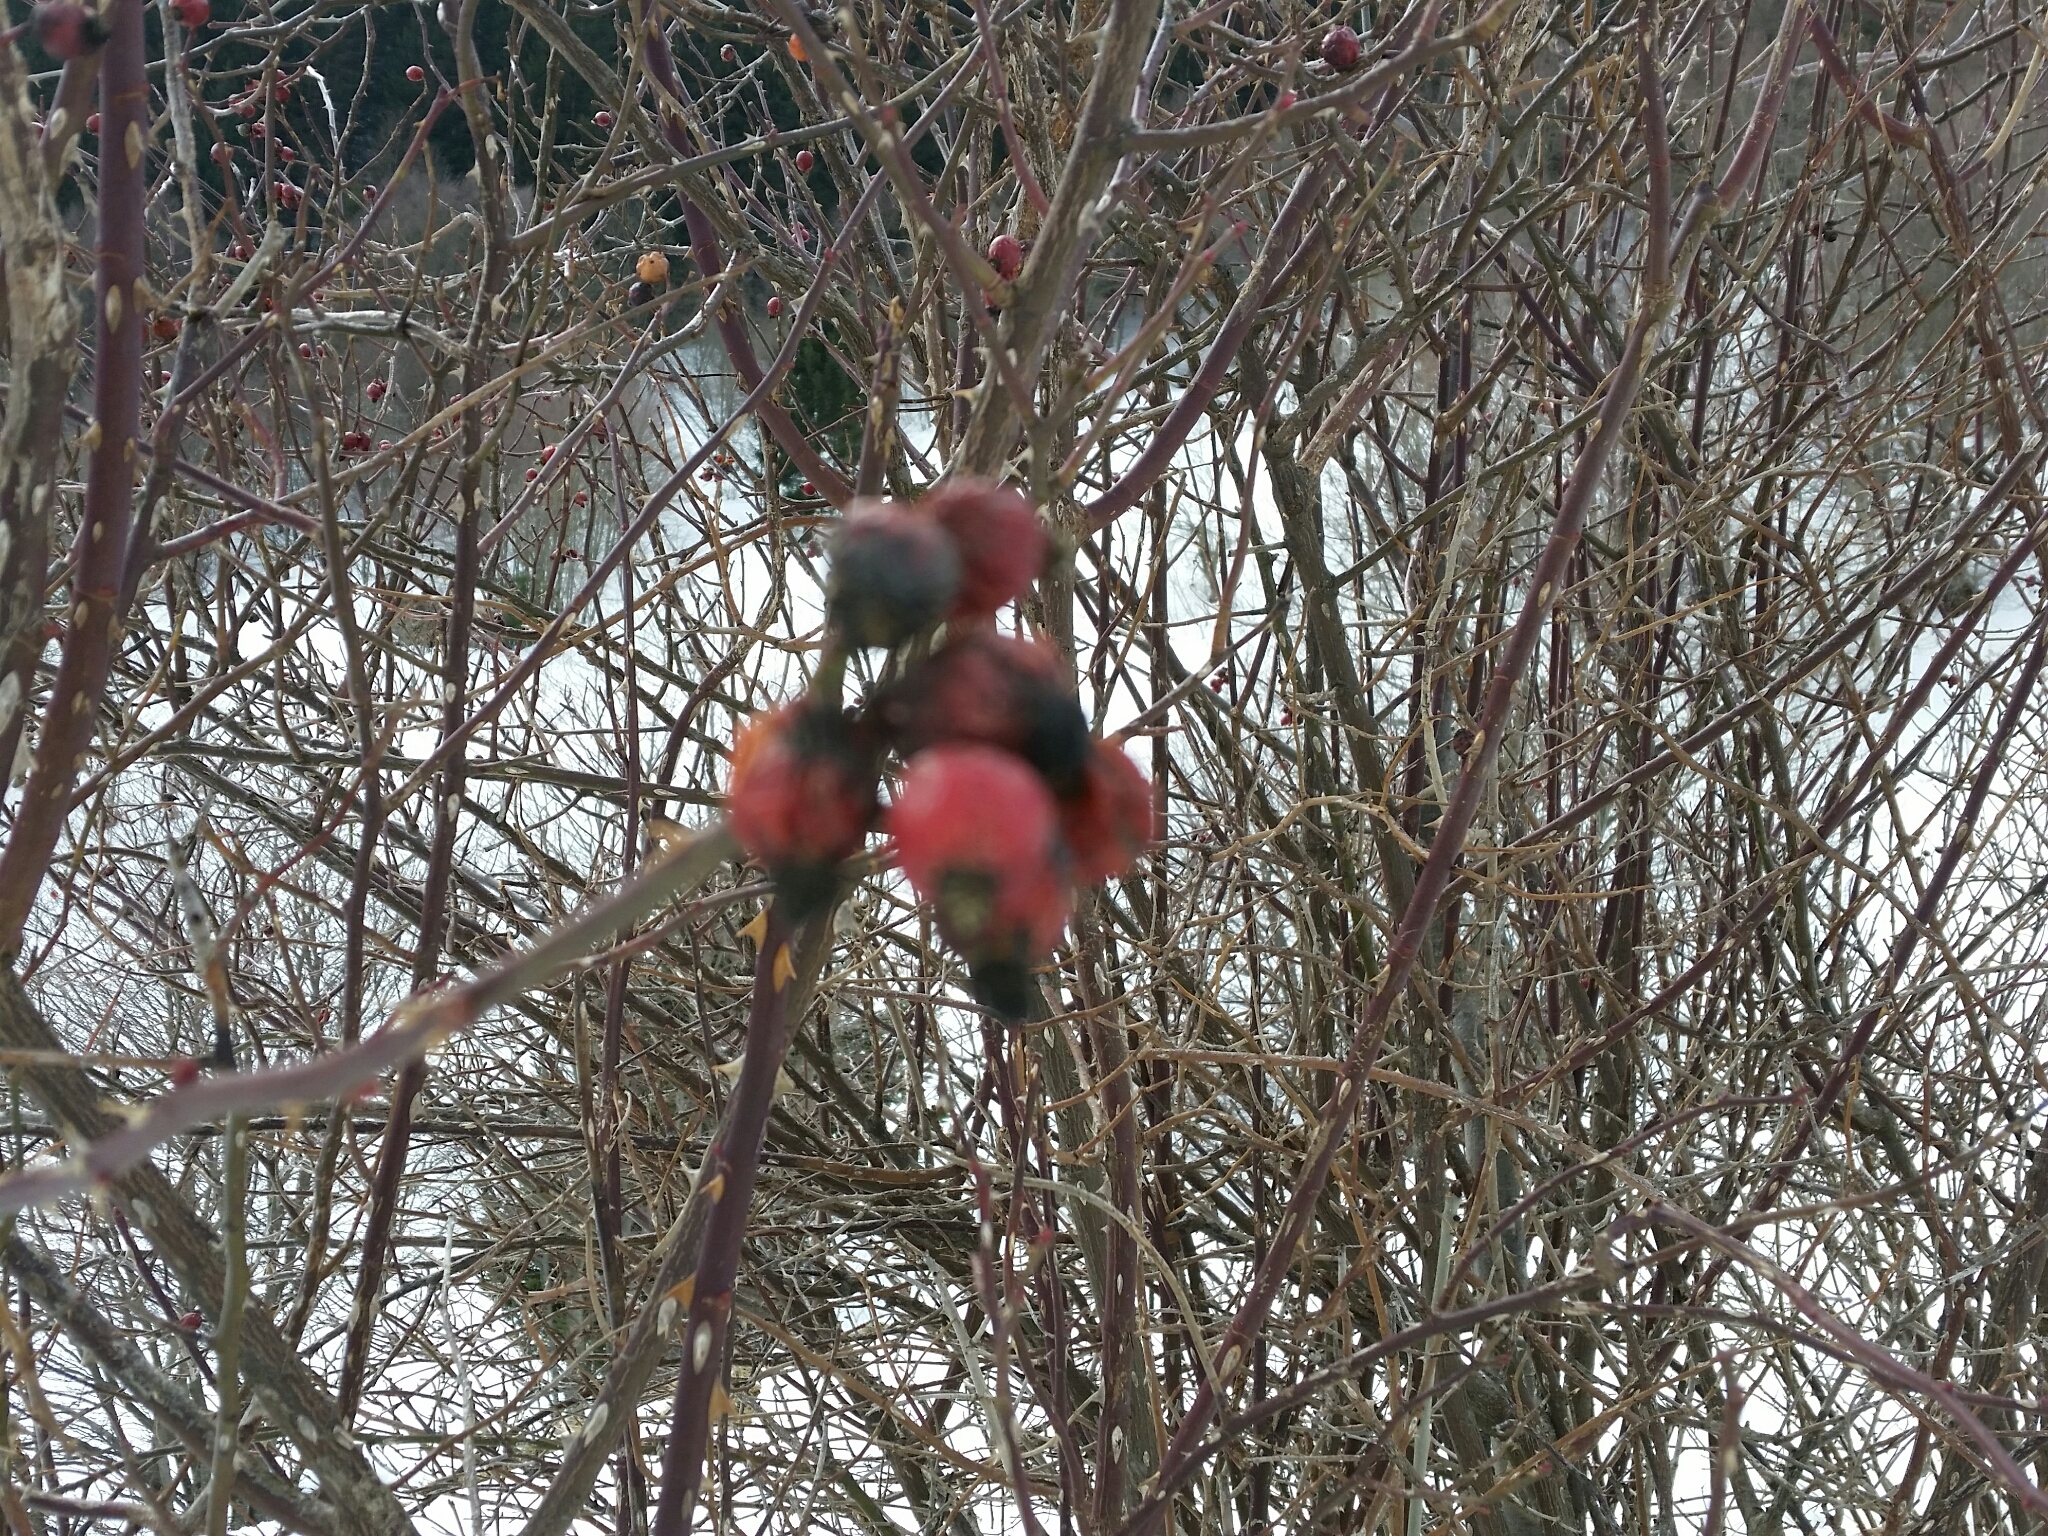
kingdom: Plantae
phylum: Tracheophyta
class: Magnoliopsida
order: Rosales
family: Rosaceae
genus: Rosa
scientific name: Rosa canina
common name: Dog rose
